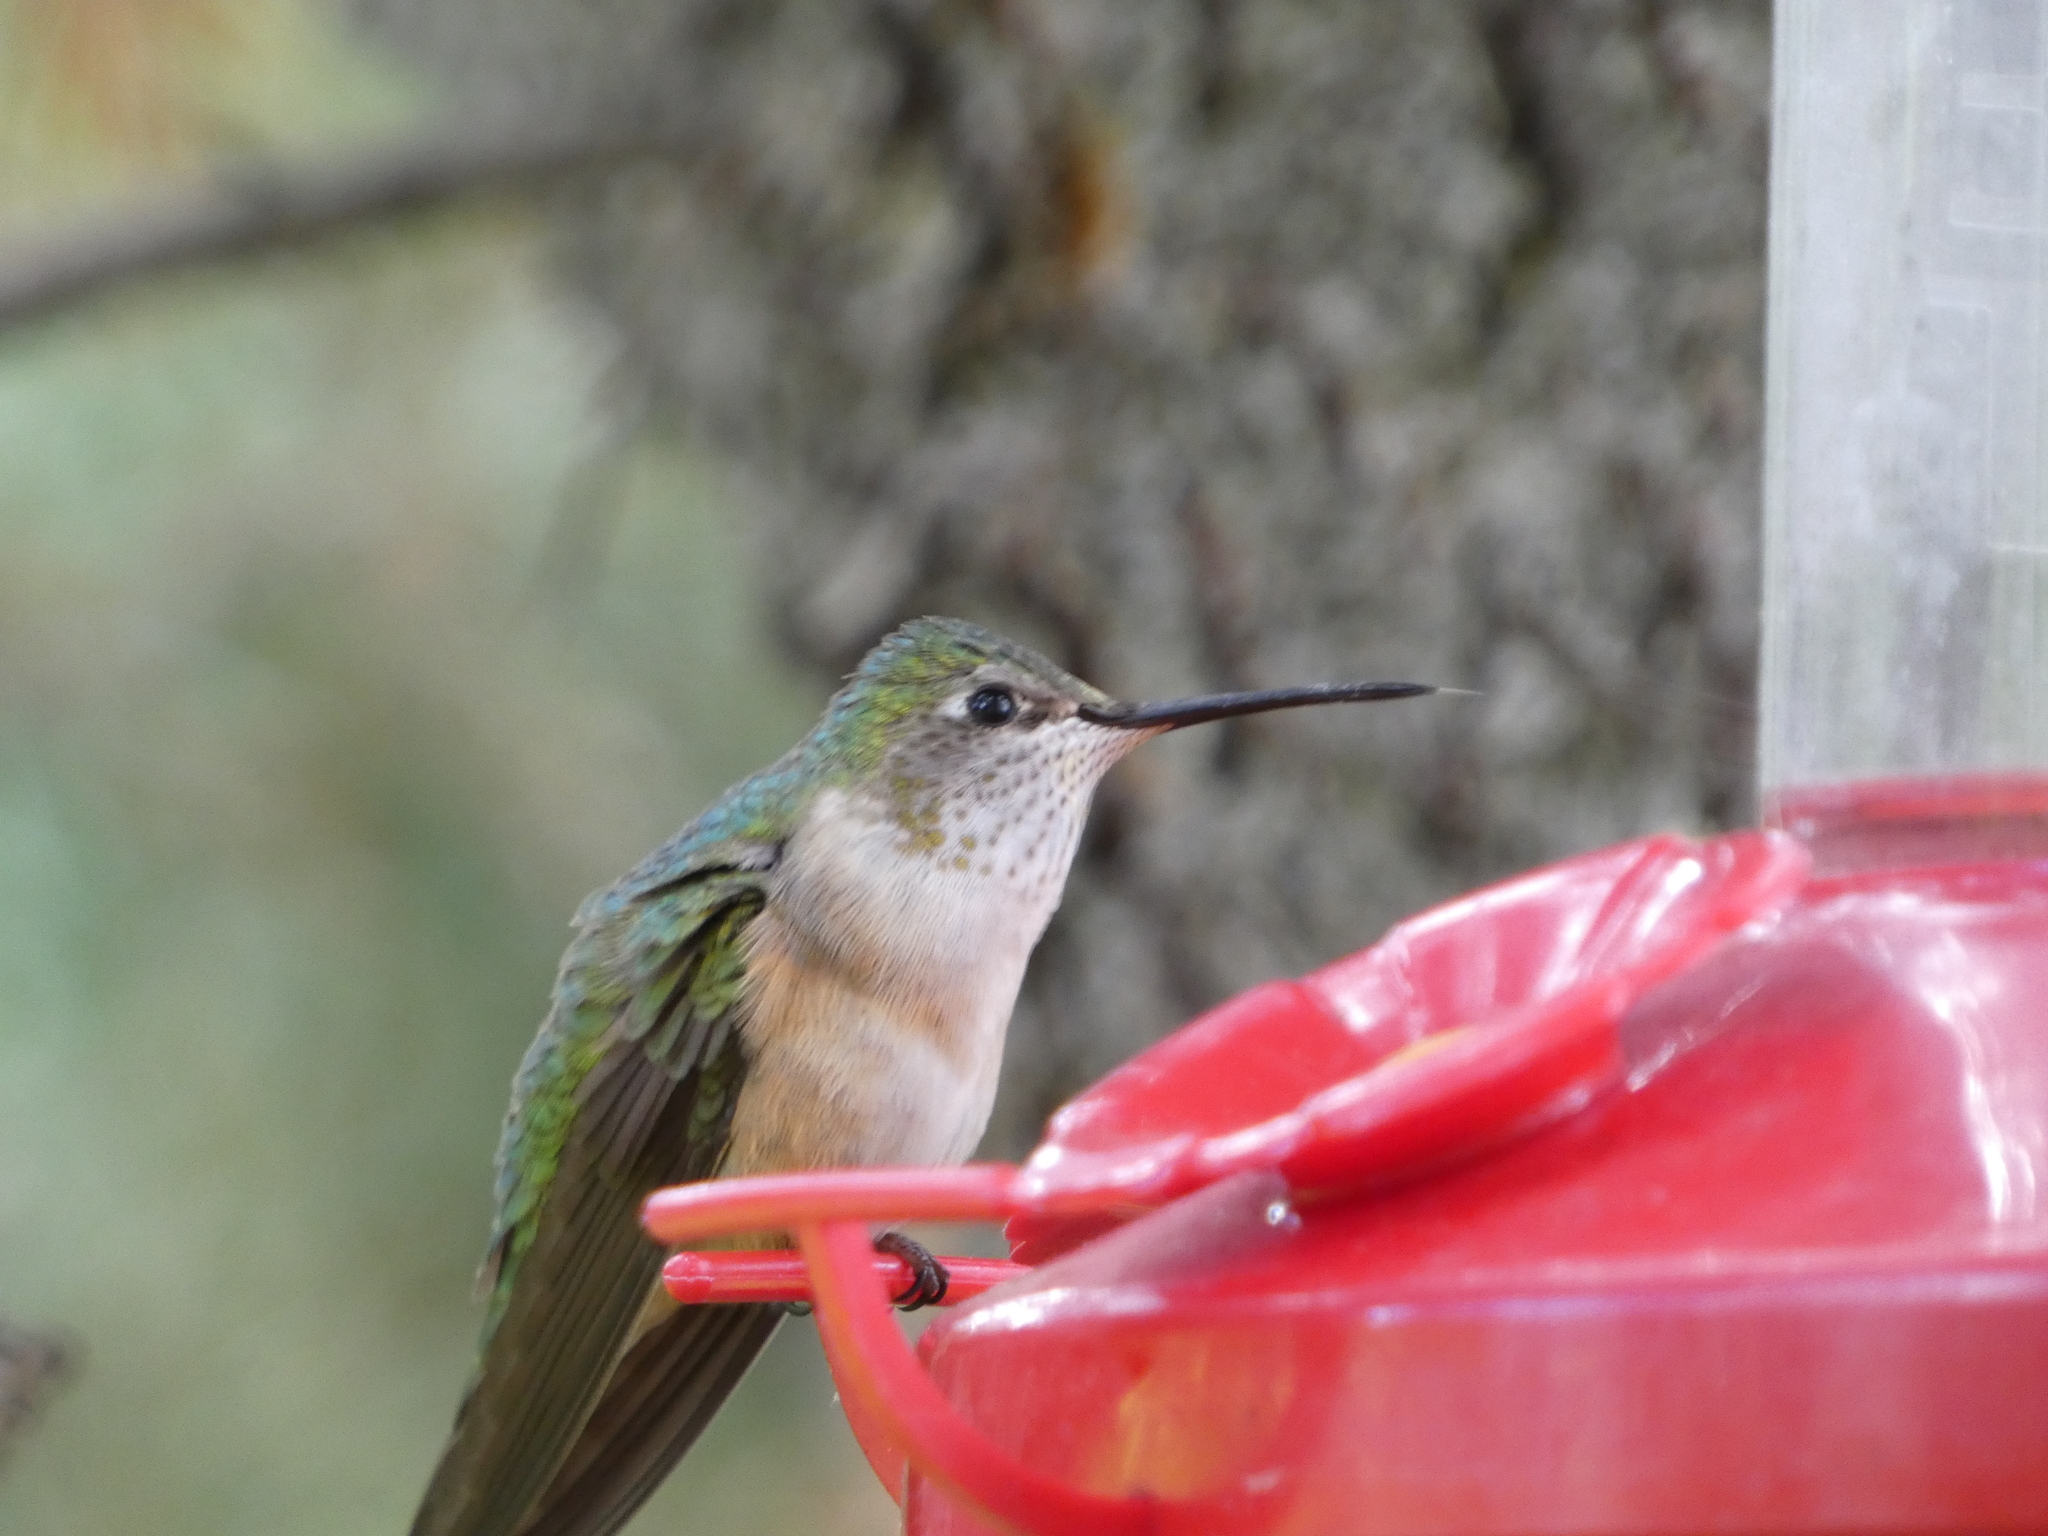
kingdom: Animalia
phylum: Chordata
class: Aves
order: Apodiformes
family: Trochilidae
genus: Selasphorus
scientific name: Selasphorus platycercus
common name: Broad-tailed hummingbird
